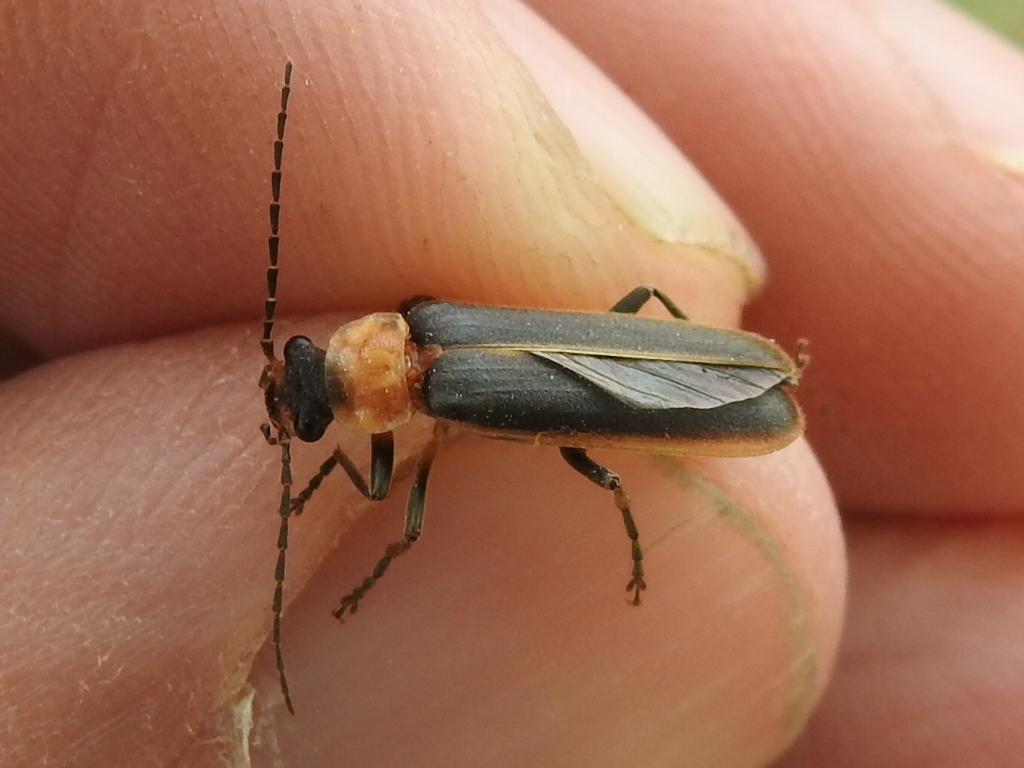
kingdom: Animalia
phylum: Arthropoda
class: Insecta
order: Coleoptera
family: Cantharidae
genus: Podabrus
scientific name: Podabrus flavicollis
